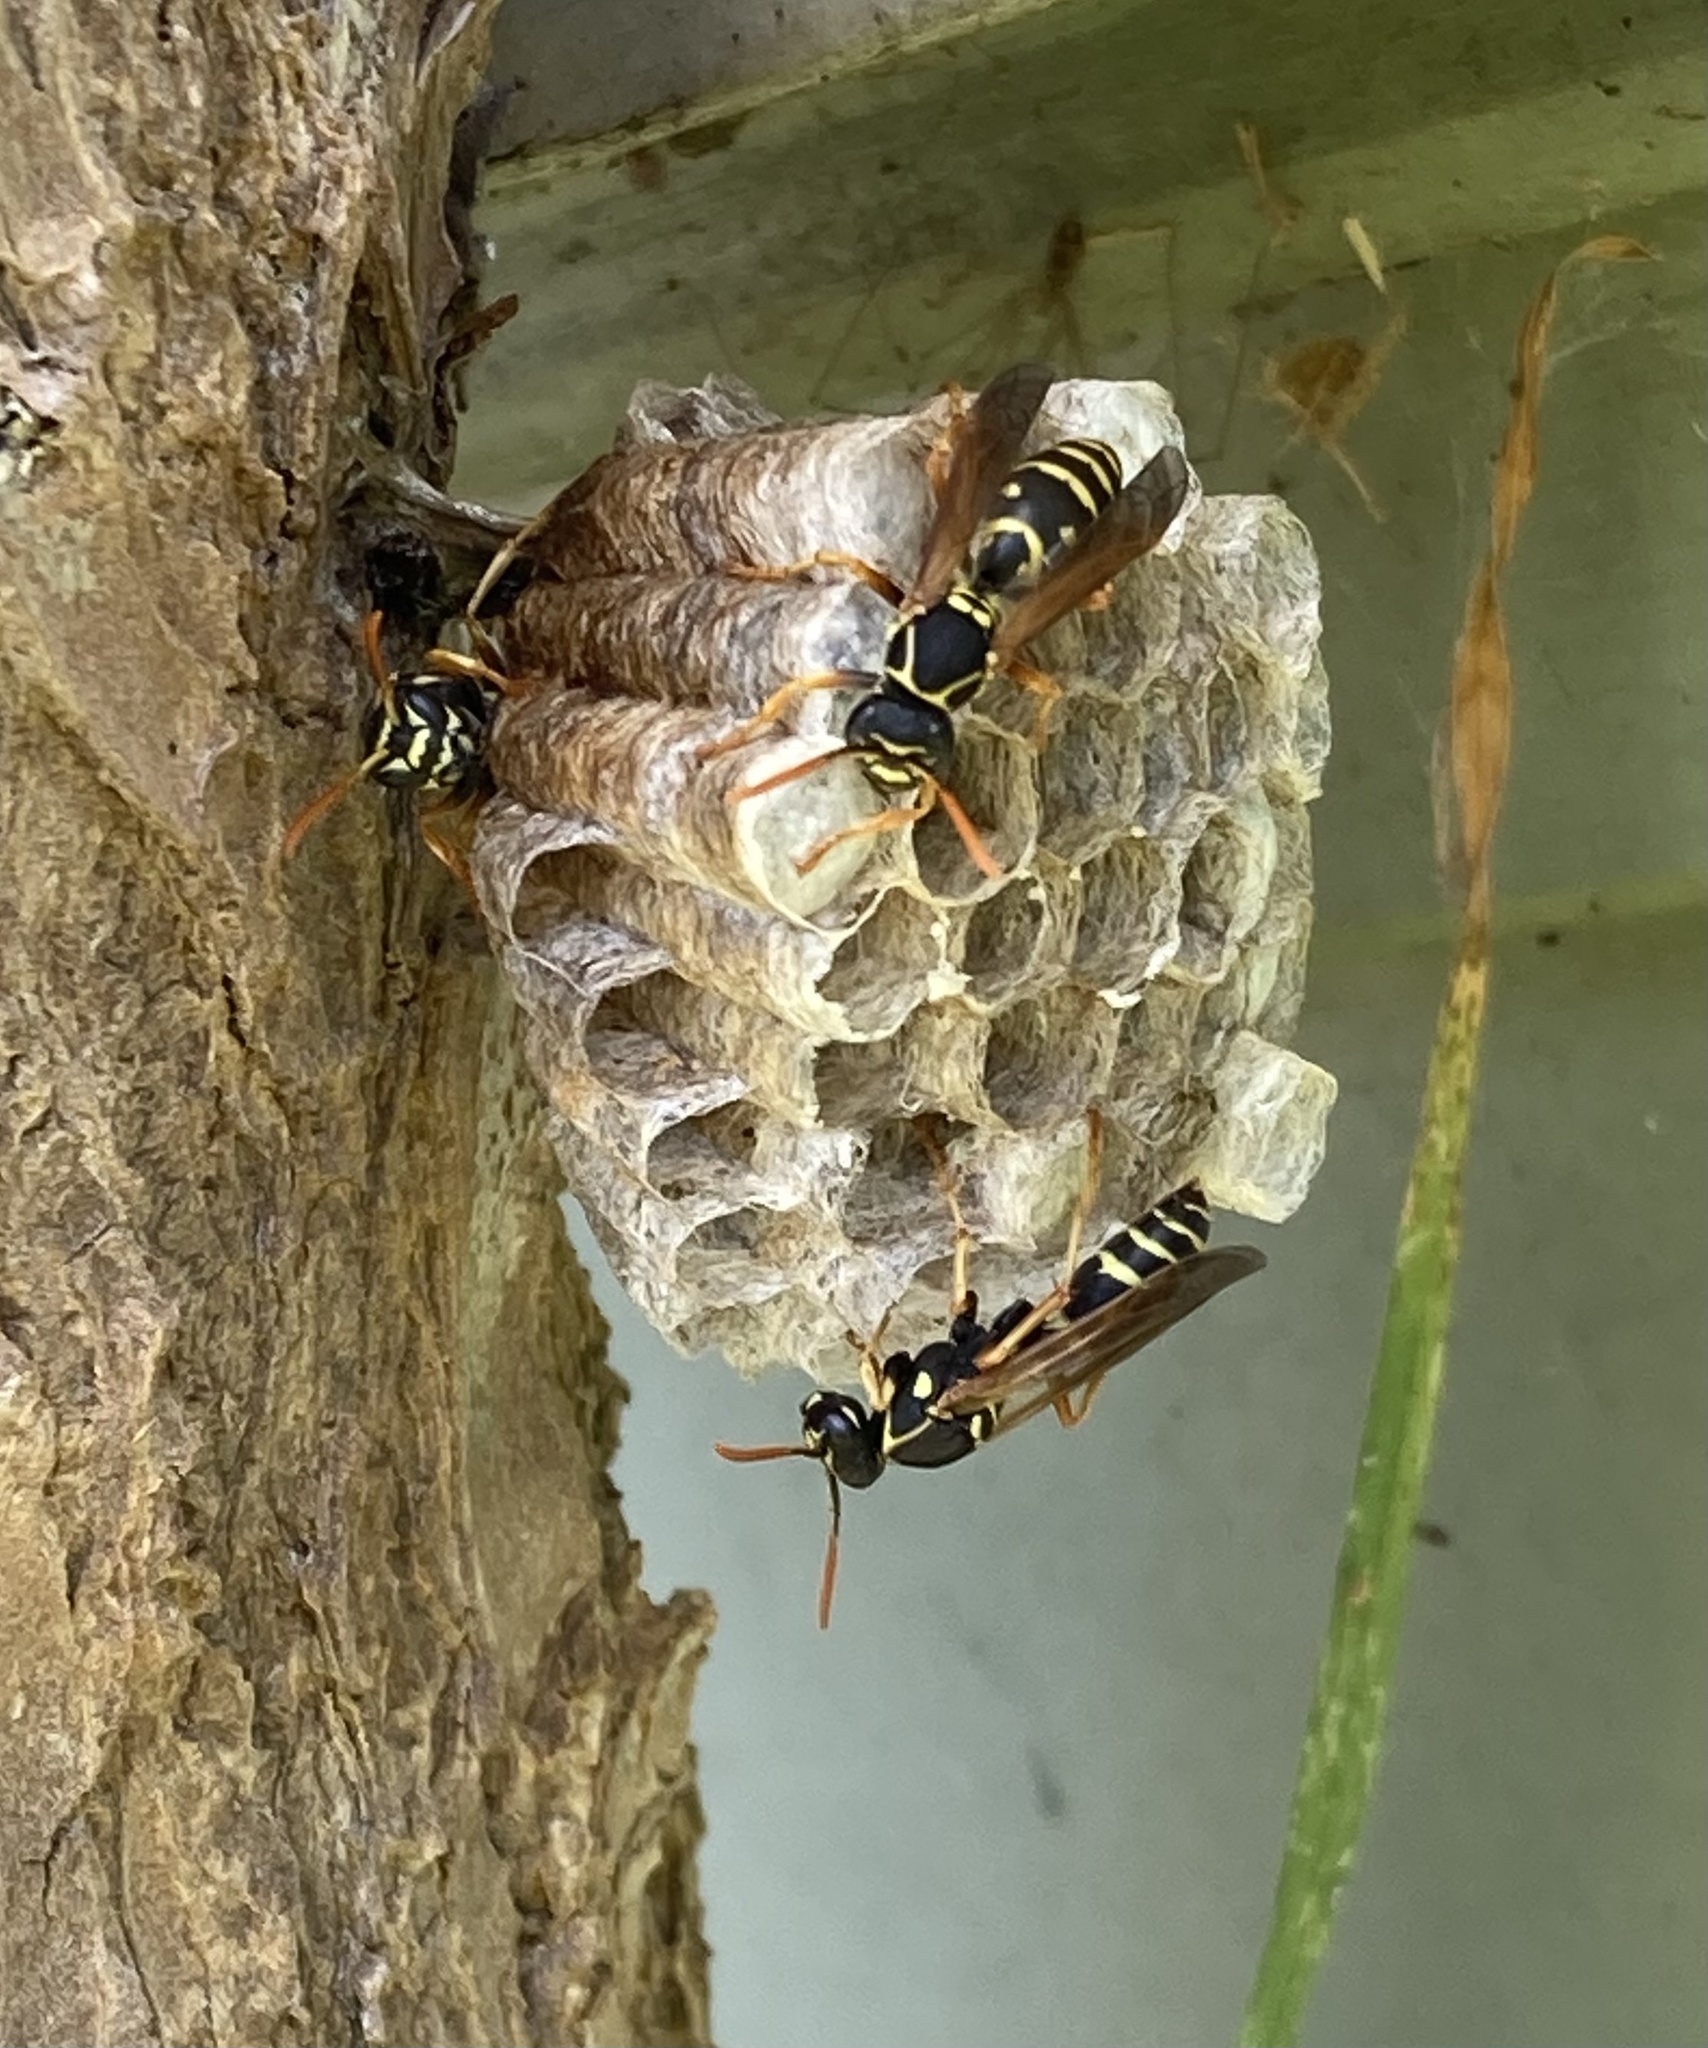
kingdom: Animalia
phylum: Arthropoda
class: Insecta
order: Hymenoptera
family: Eumenidae
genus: Polistes
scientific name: Polistes chinensis
